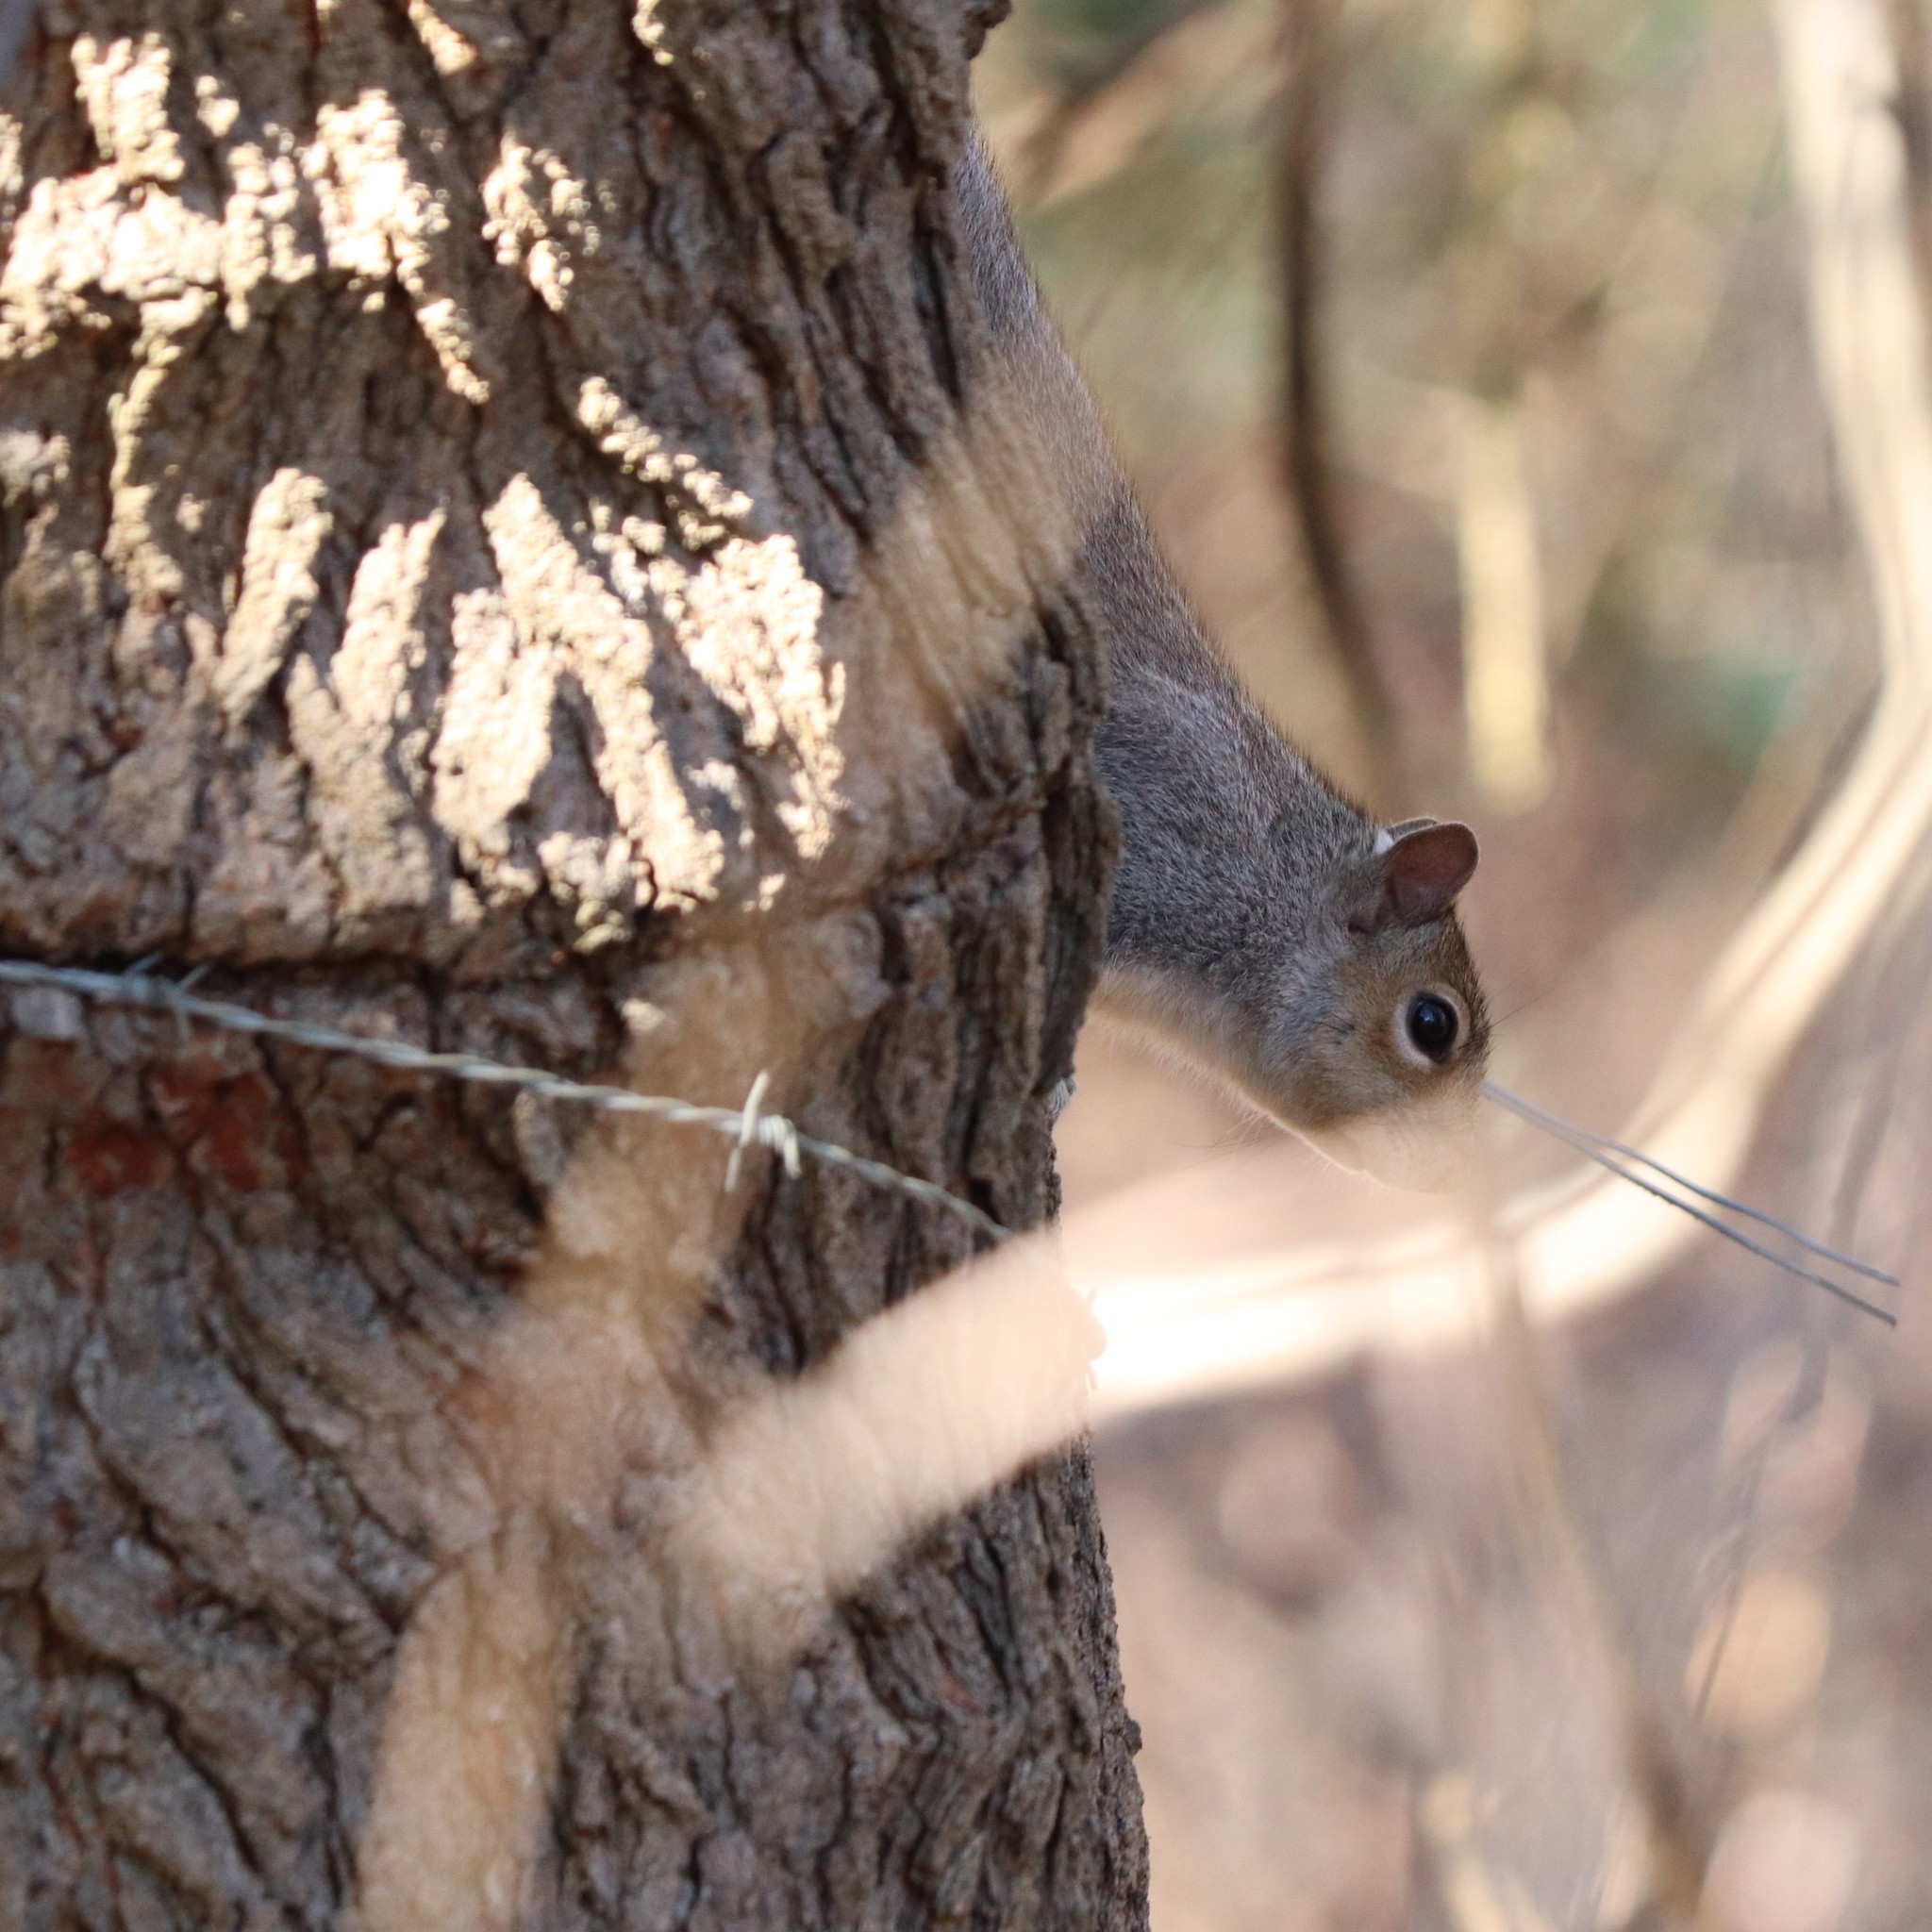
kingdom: Animalia
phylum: Chordata
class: Mammalia
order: Rodentia
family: Sciuridae
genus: Sciurus
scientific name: Sciurus carolinensis
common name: Eastern gray squirrel
